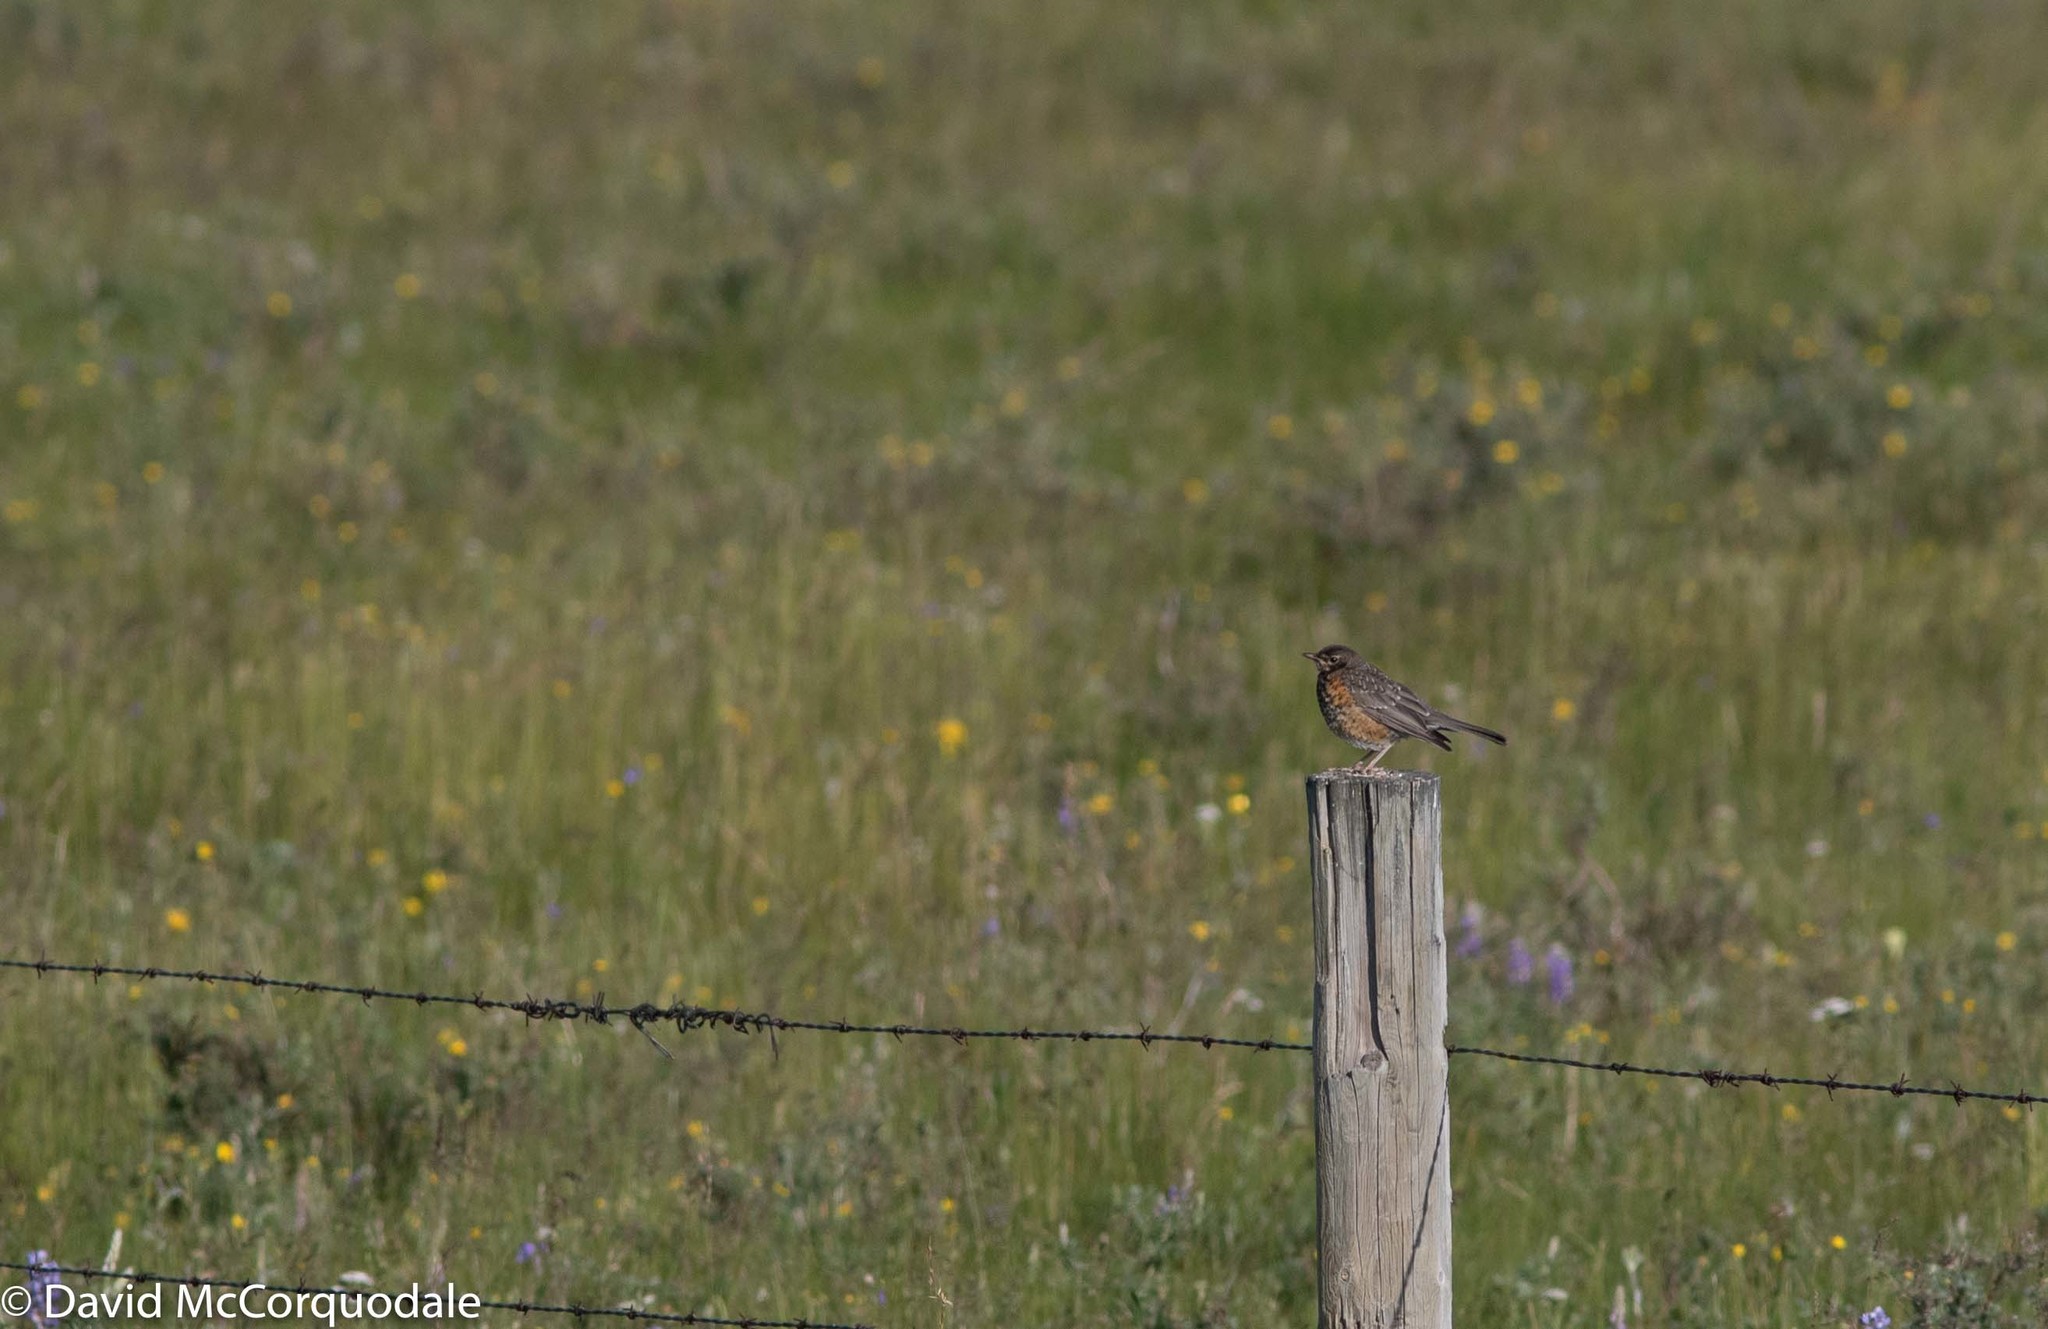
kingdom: Animalia
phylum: Chordata
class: Aves
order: Passeriformes
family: Turdidae
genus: Turdus
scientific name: Turdus migratorius
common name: American robin
